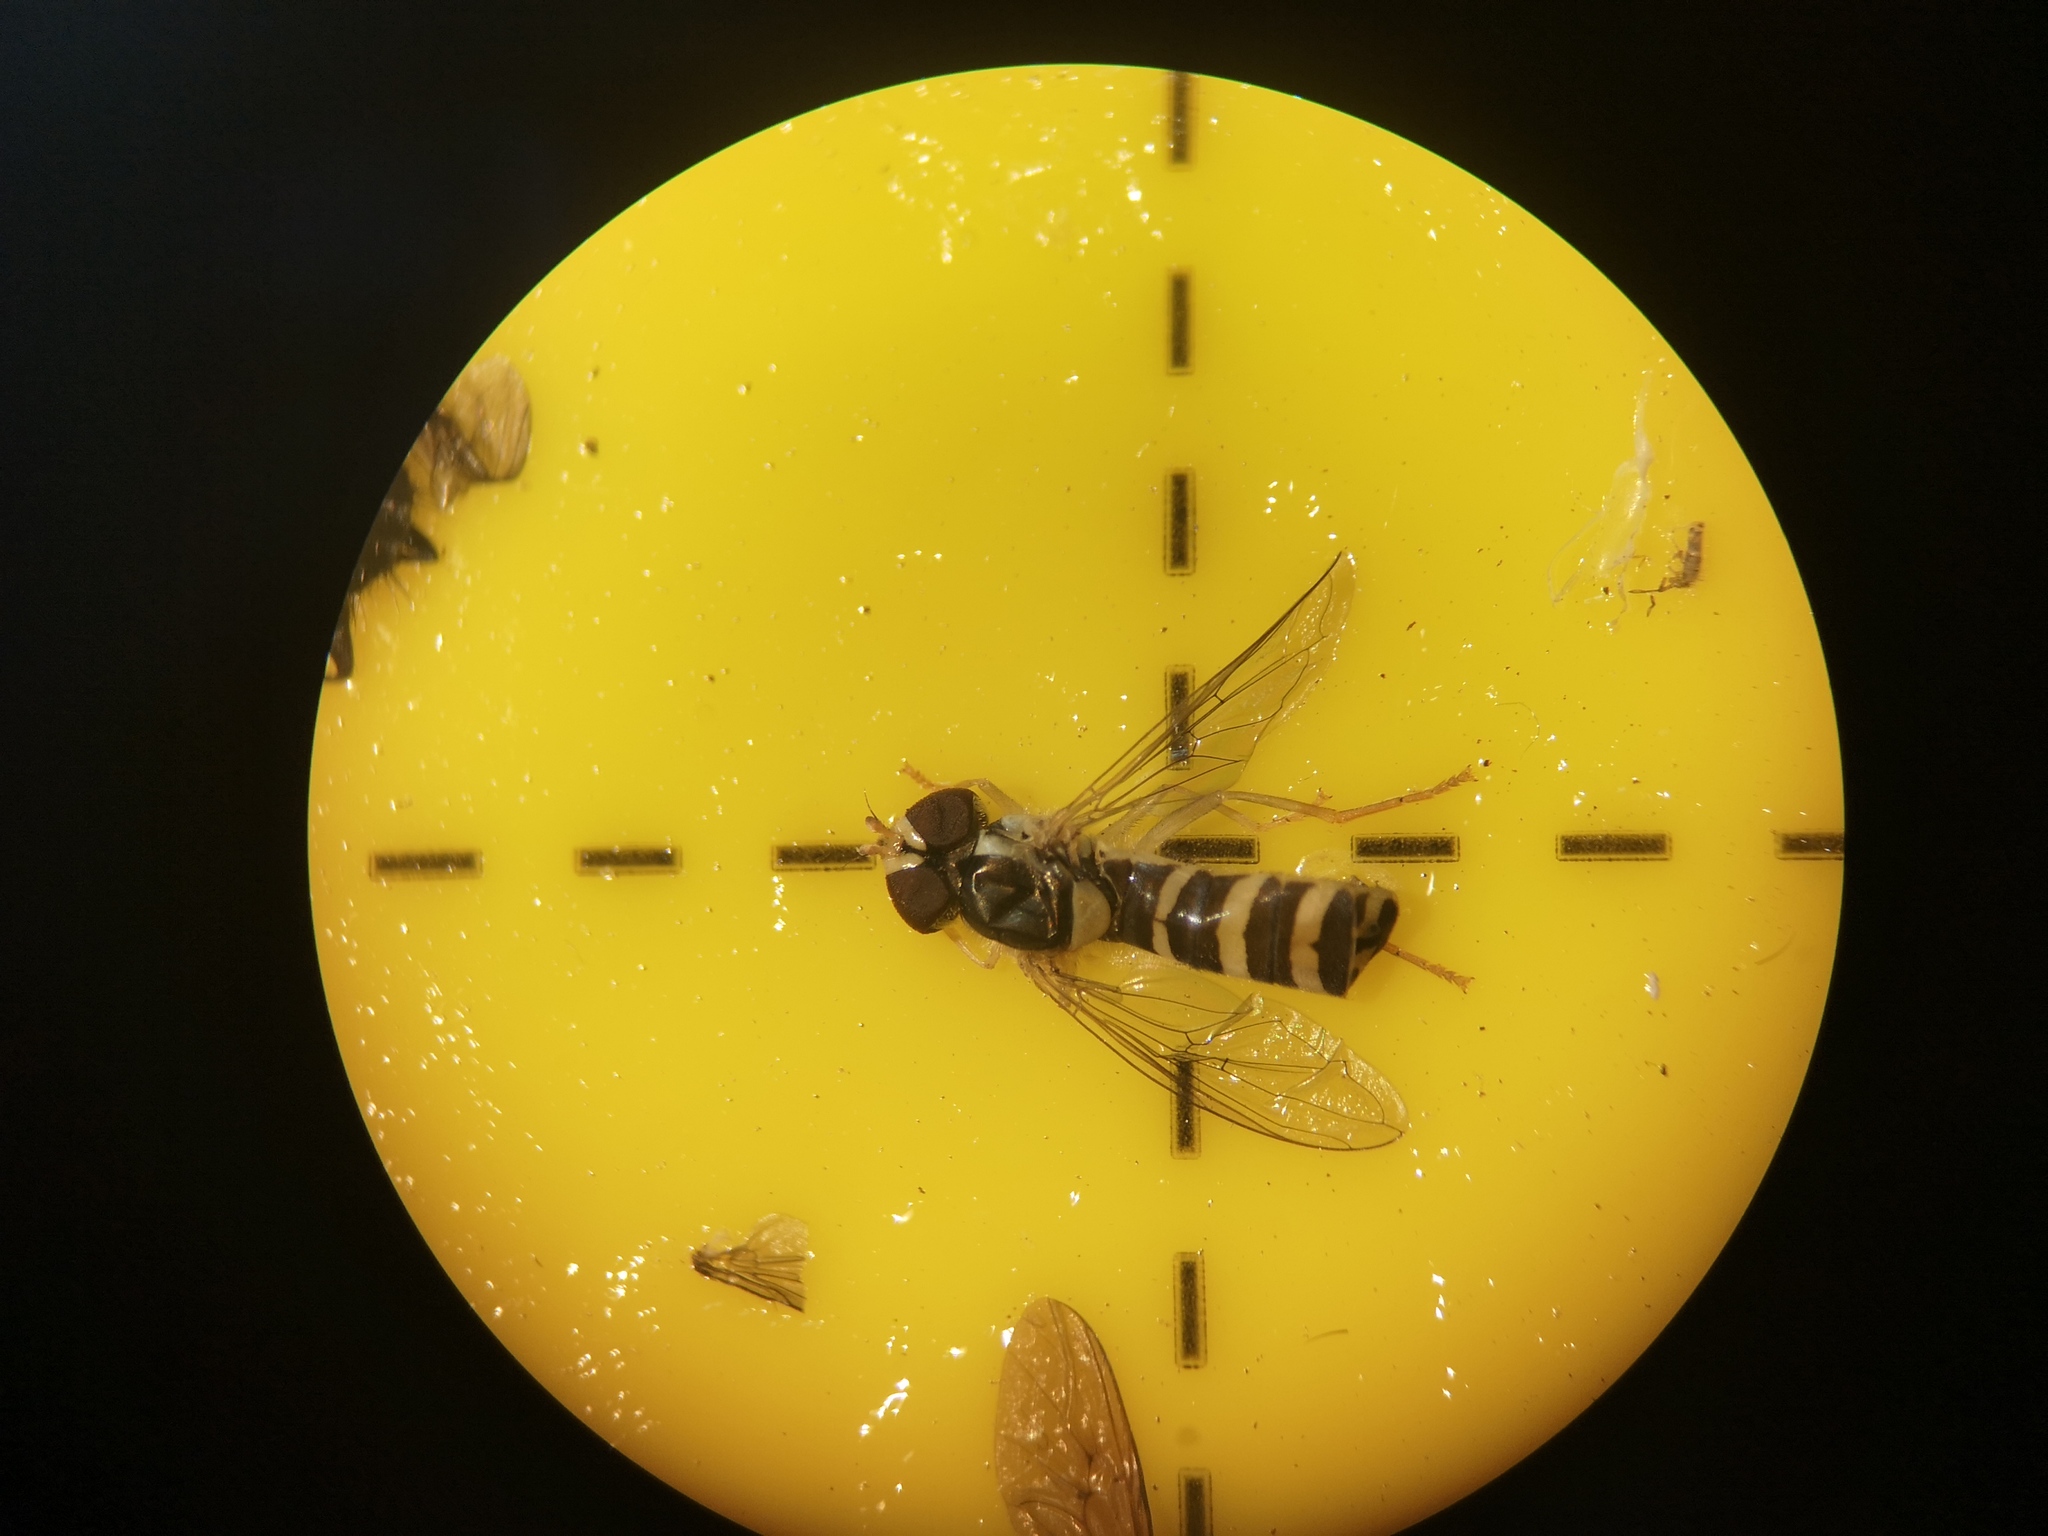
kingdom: Animalia
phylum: Arthropoda
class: Insecta
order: Diptera
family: Syrphidae
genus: Sphaerophoria
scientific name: Sphaerophoria
